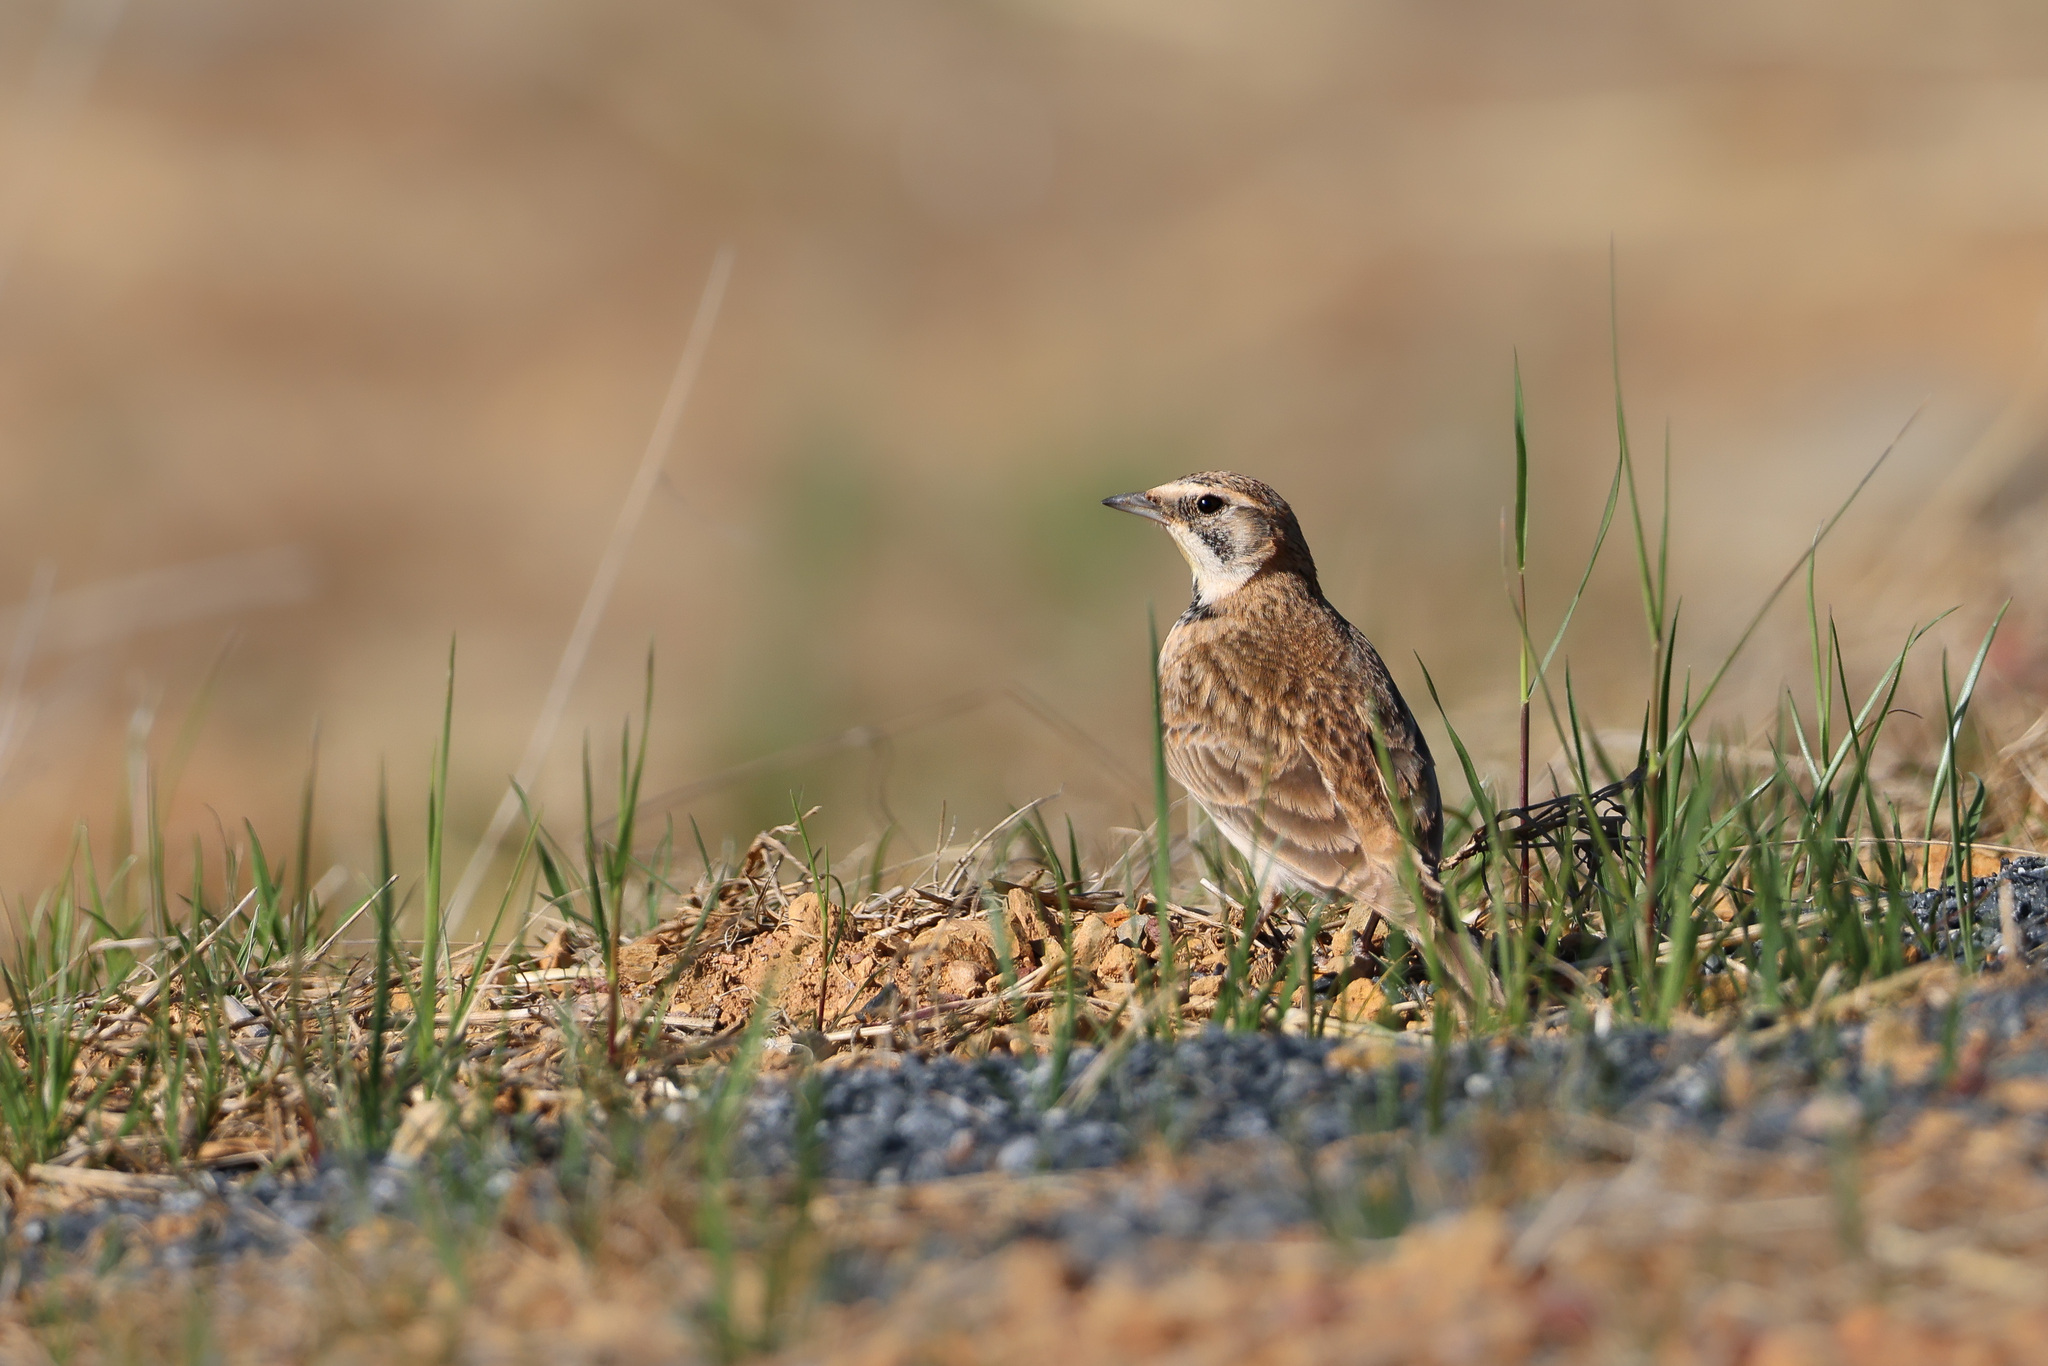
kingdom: Animalia
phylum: Chordata
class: Aves
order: Passeriformes
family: Alaudidae
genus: Eremophila
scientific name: Eremophila alpestris
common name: Horned lark
